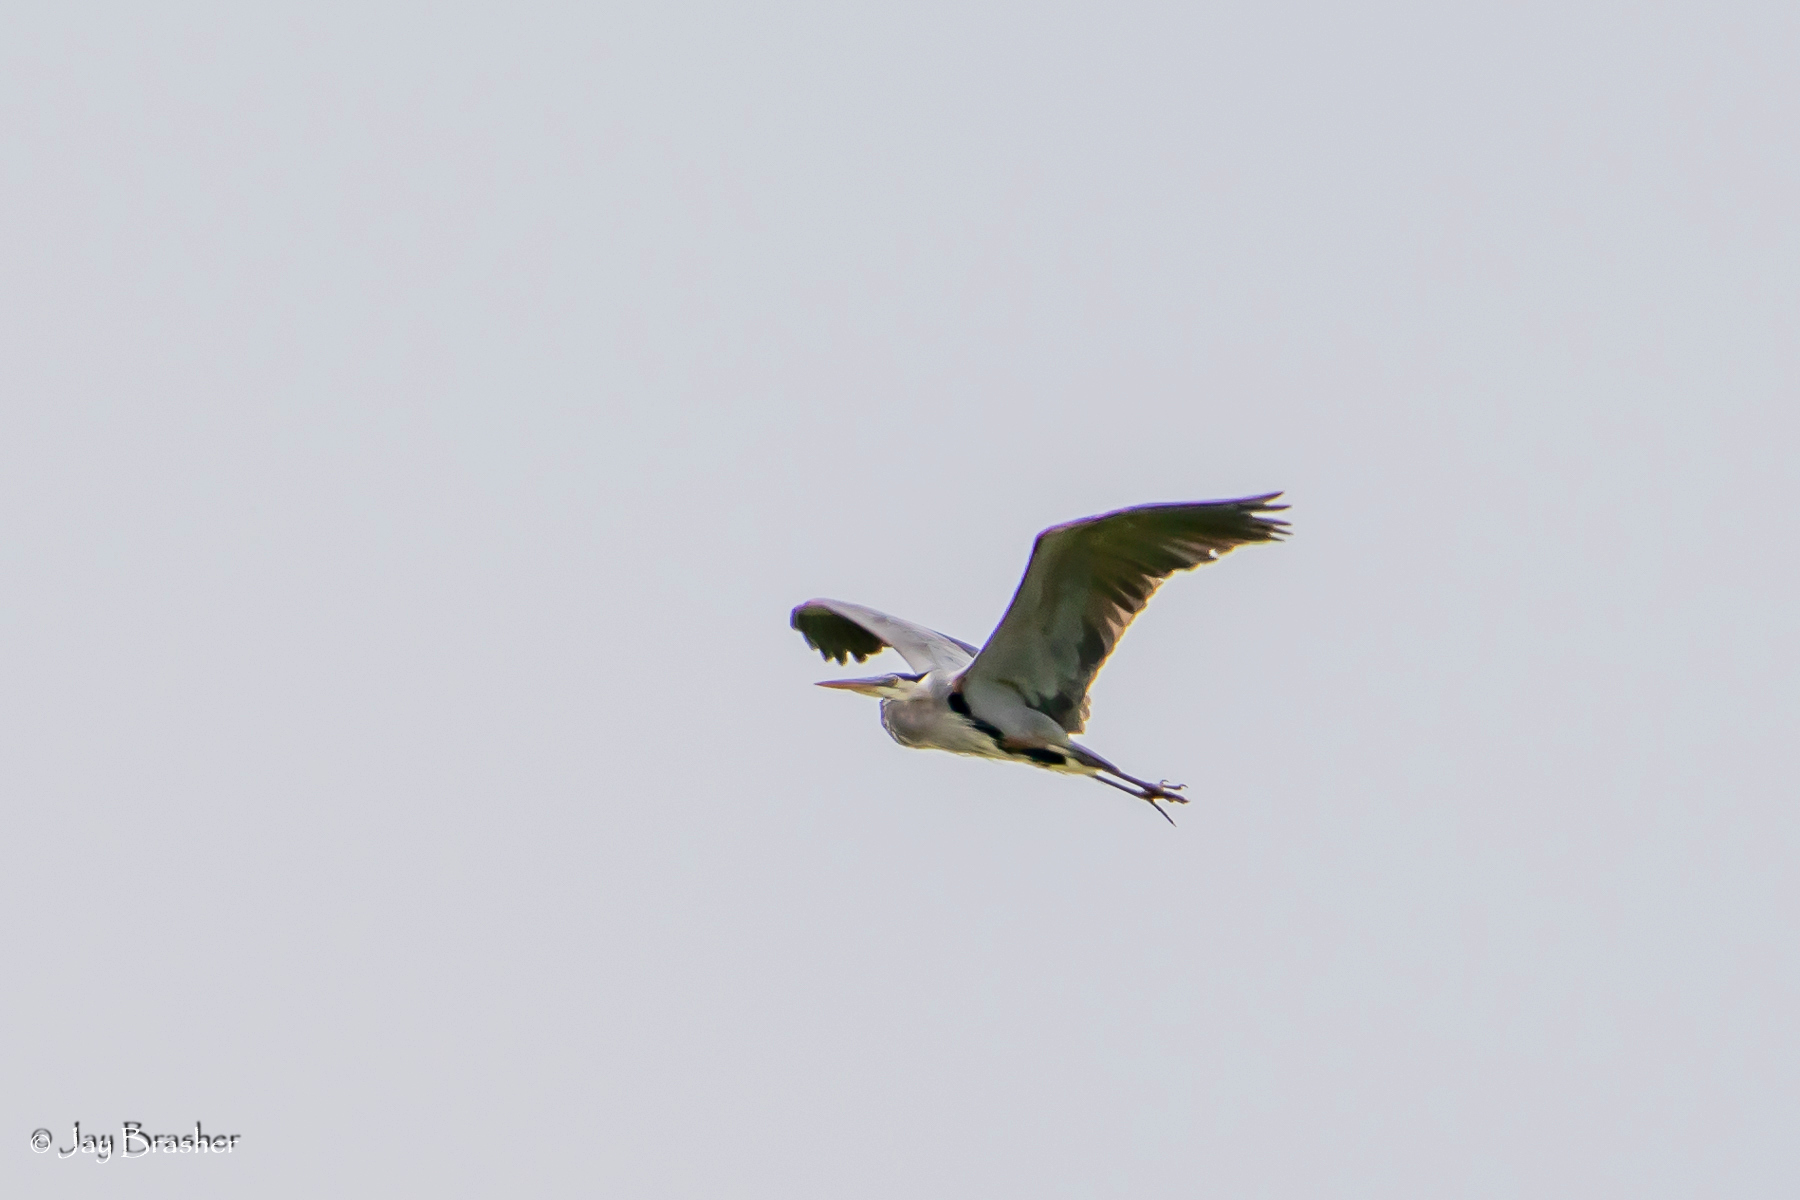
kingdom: Animalia
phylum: Chordata
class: Aves
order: Pelecaniformes
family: Ardeidae
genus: Ardea
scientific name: Ardea herodias
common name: Great blue heron
